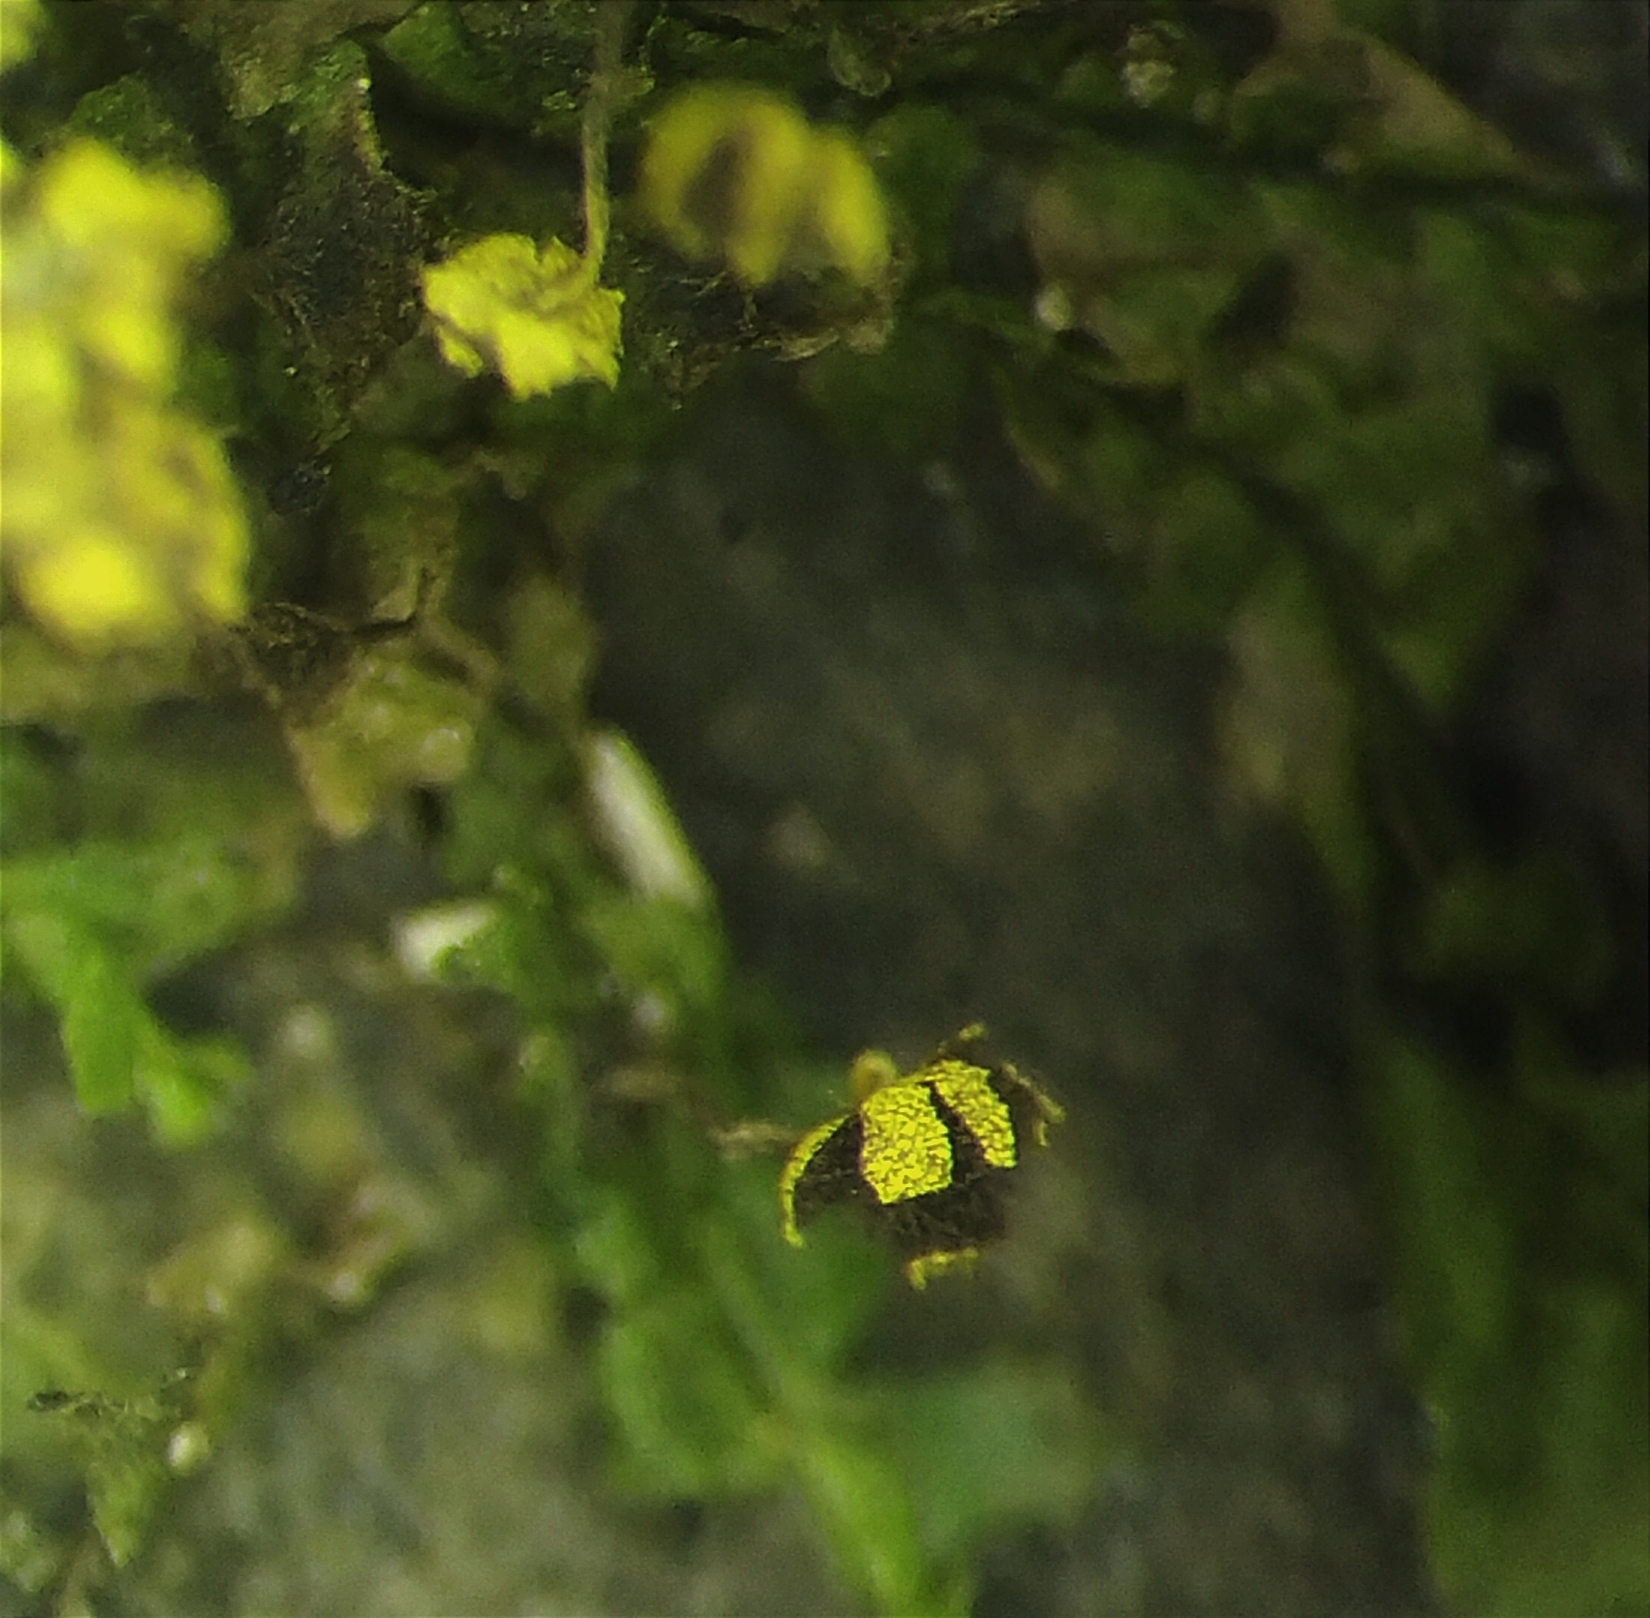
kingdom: Protozoa
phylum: Mycetozoa
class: Myxomycetes
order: Physarales
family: Physaraceae
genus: Physarum
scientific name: Physarum viride
